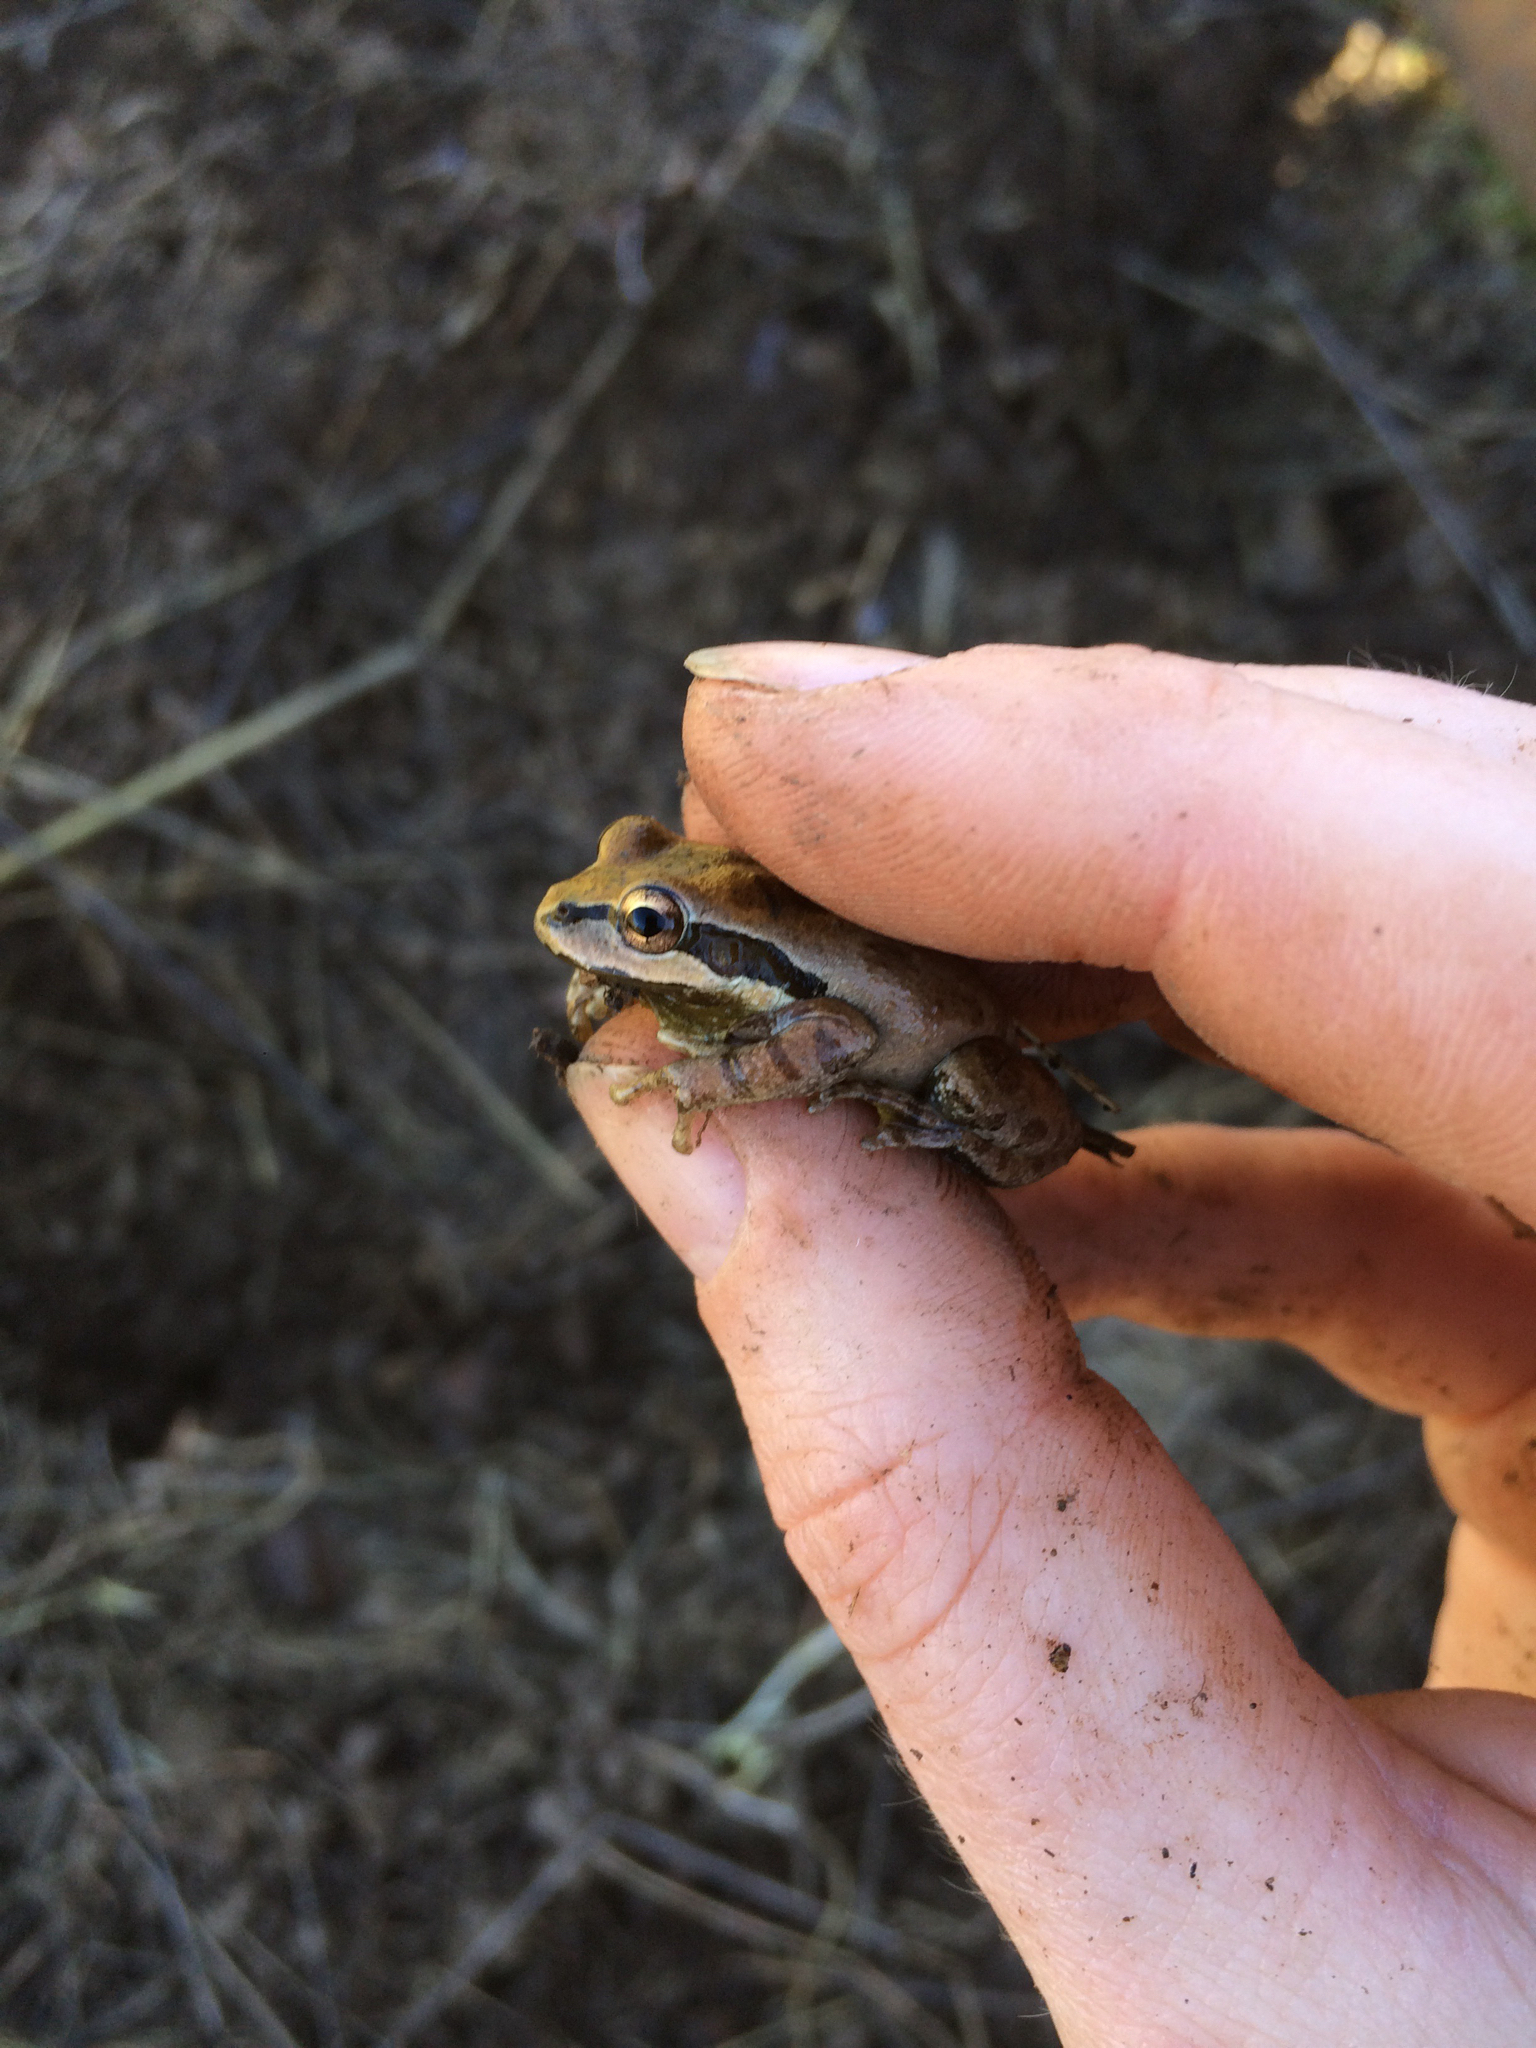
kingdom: Animalia
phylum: Chordata
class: Amphibia
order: Anura
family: Hylidae
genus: Pseudacris
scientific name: Pseudacris regilla
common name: Pacific chorus frog
